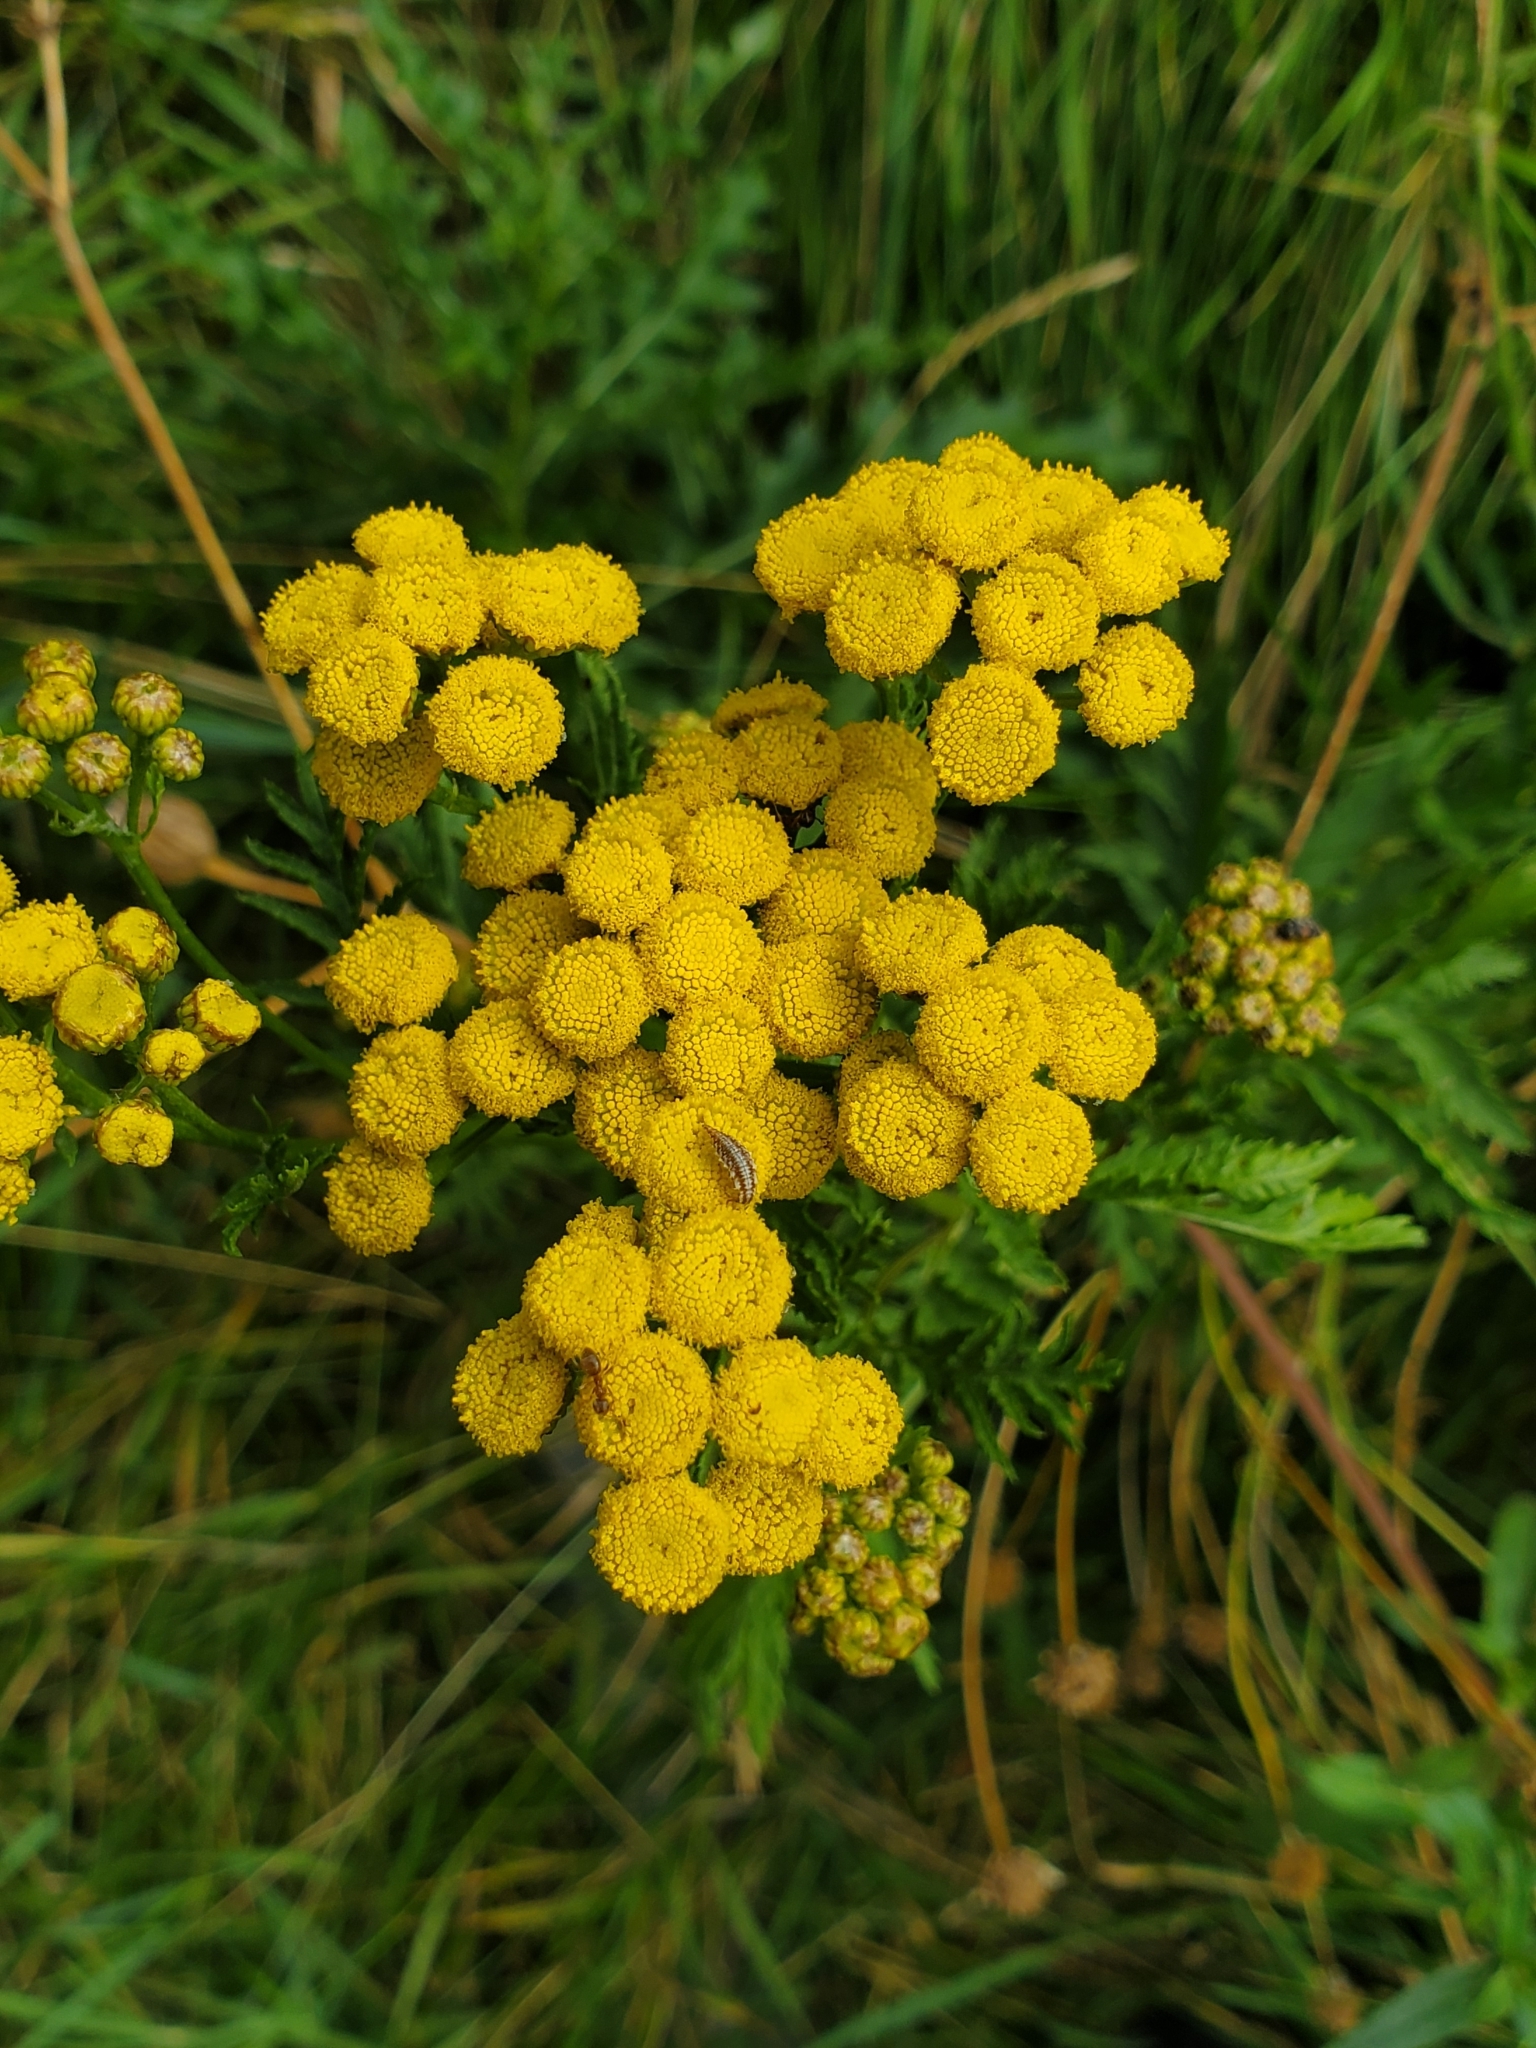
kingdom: Plantae
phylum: Tracheophyta
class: Magnoliopsida
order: Asterales
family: Asteraceae
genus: Tanacetum
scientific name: Tanacetum vulgare
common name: Common tansy
